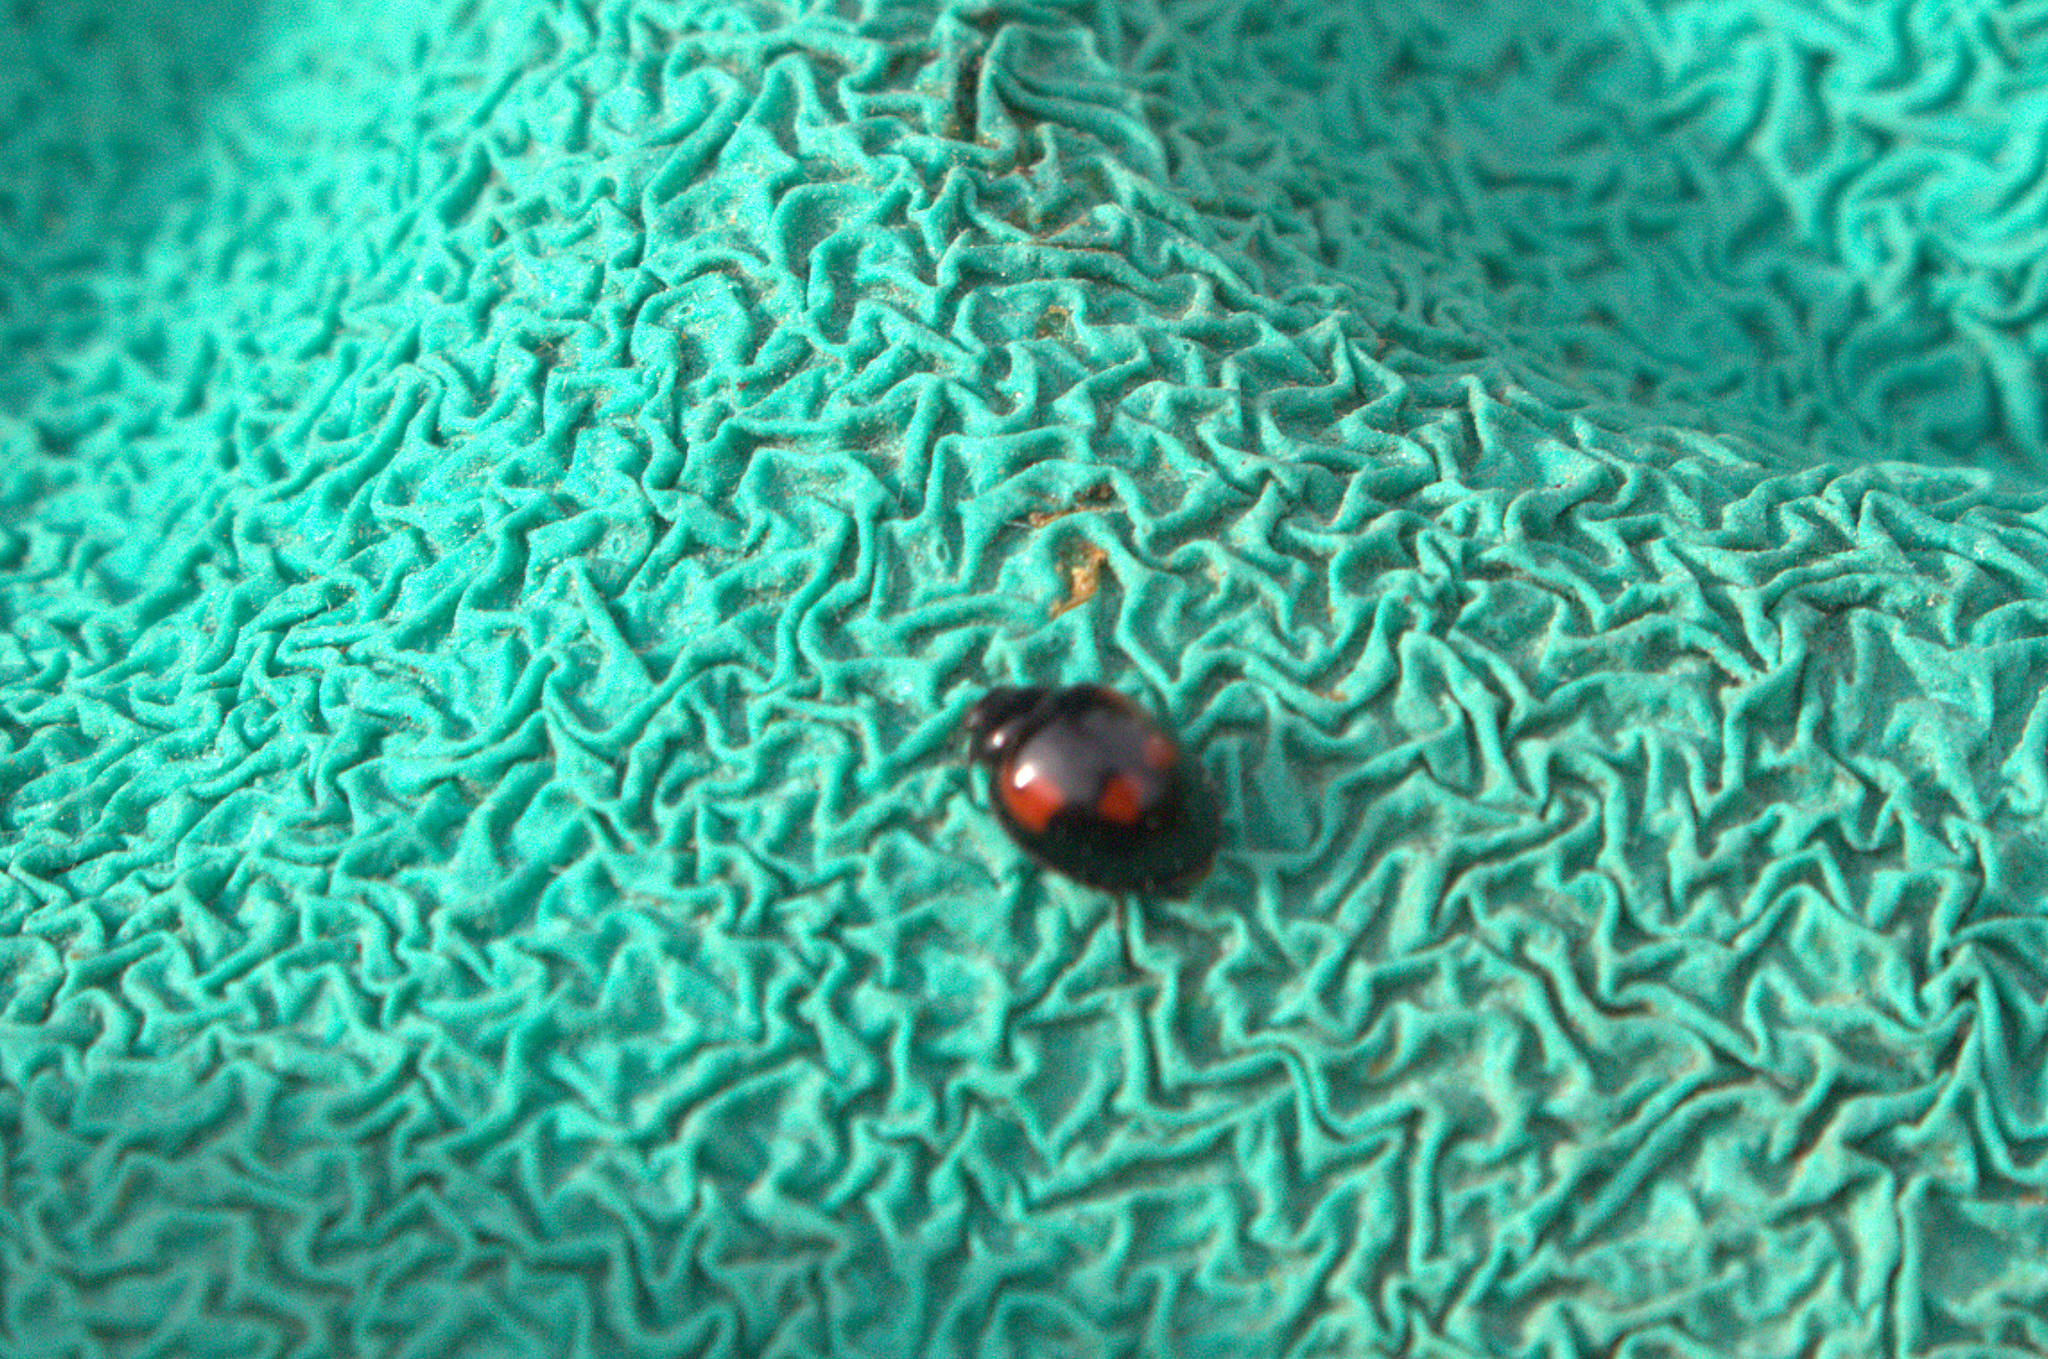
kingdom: Animalia
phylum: Arthropoda
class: Insecta
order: Coleoptera
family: Coccinellidae
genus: Brumus
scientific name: Brumus quadripustulatus
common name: Ladybird beetle
